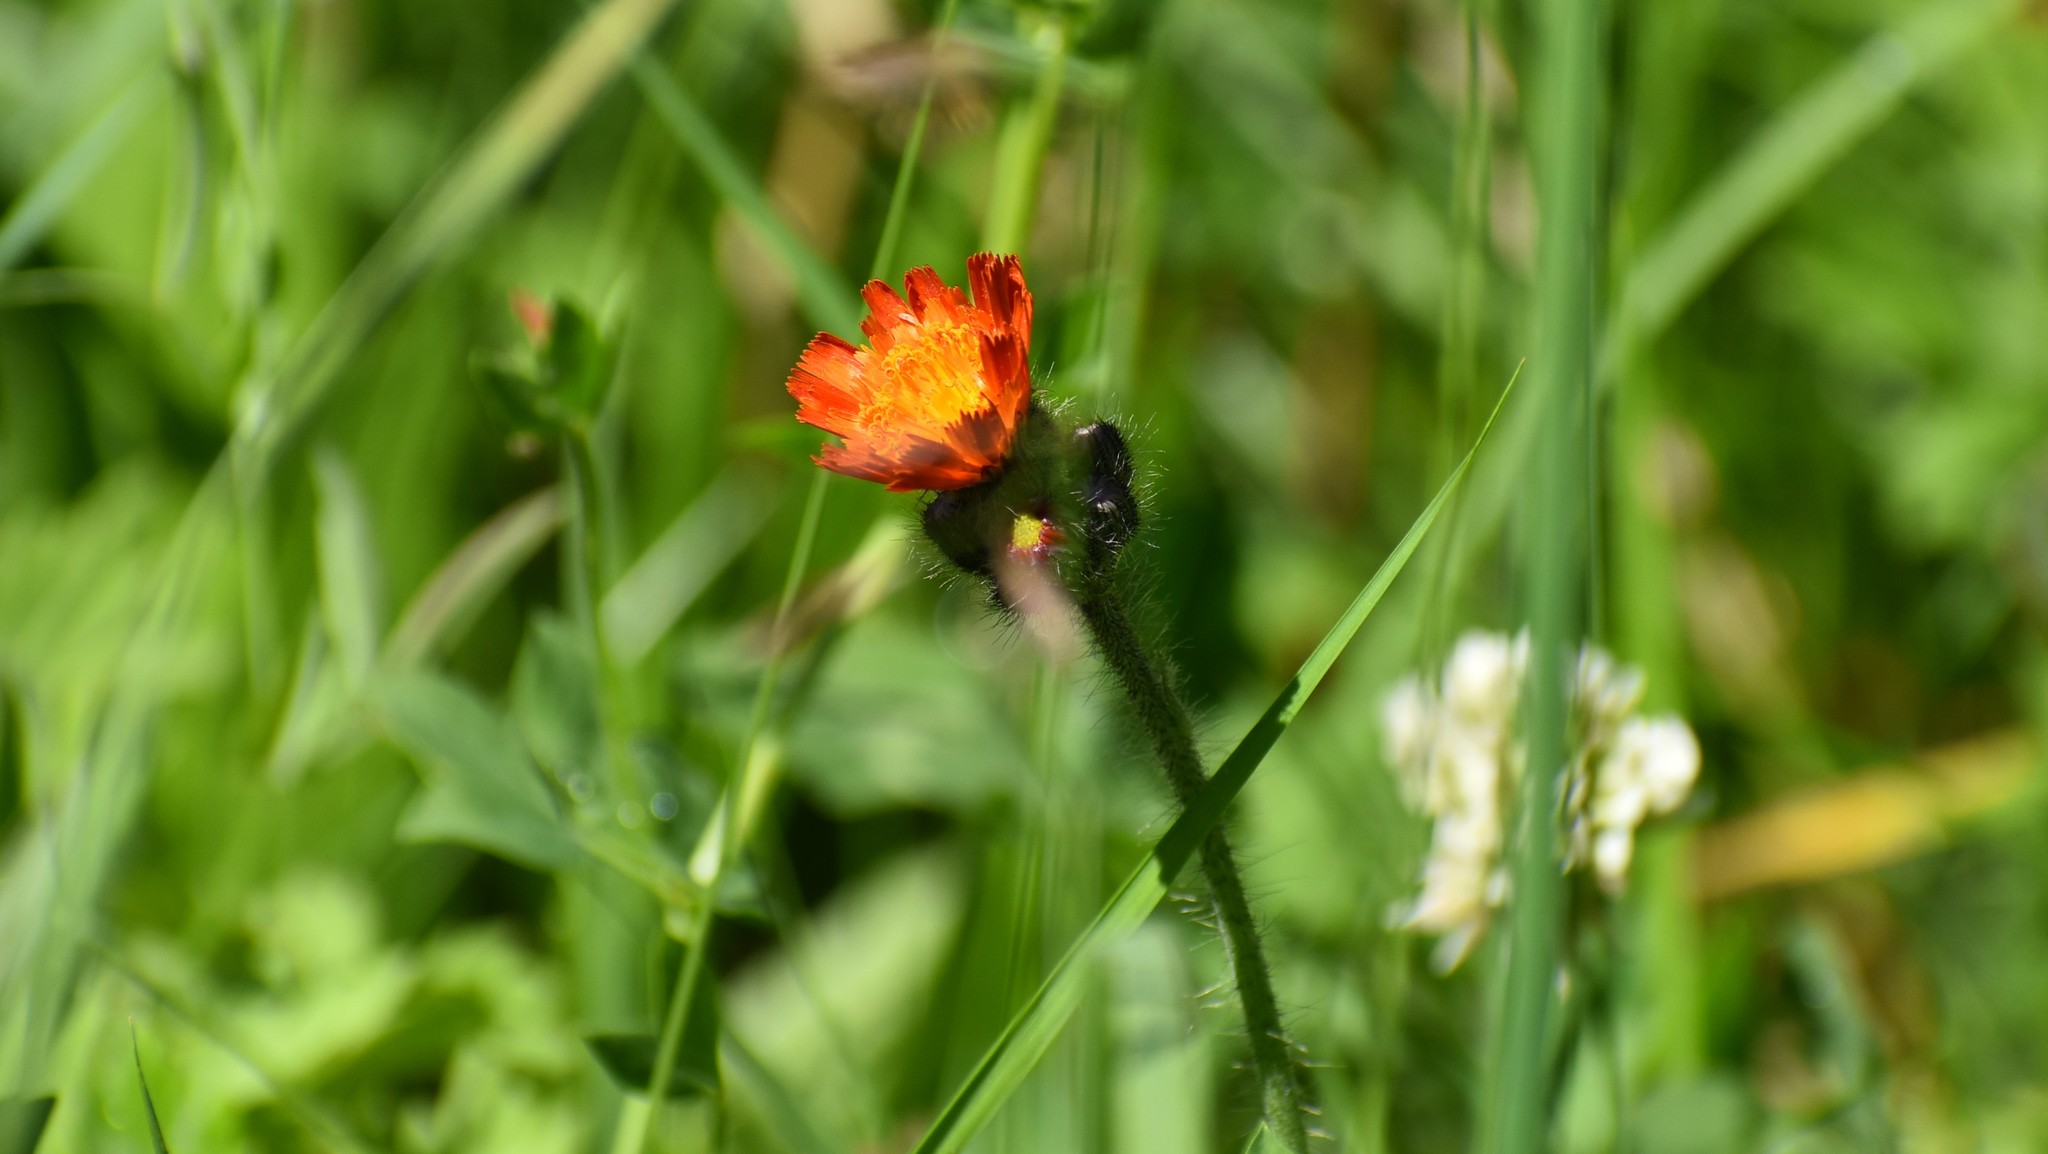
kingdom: Plantae
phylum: Tracheophyta
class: Magnoliopsida
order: Asterales
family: Asteraceae
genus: Pilosella
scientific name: Pilosella aurantiaca
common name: Fox-and-cubs
